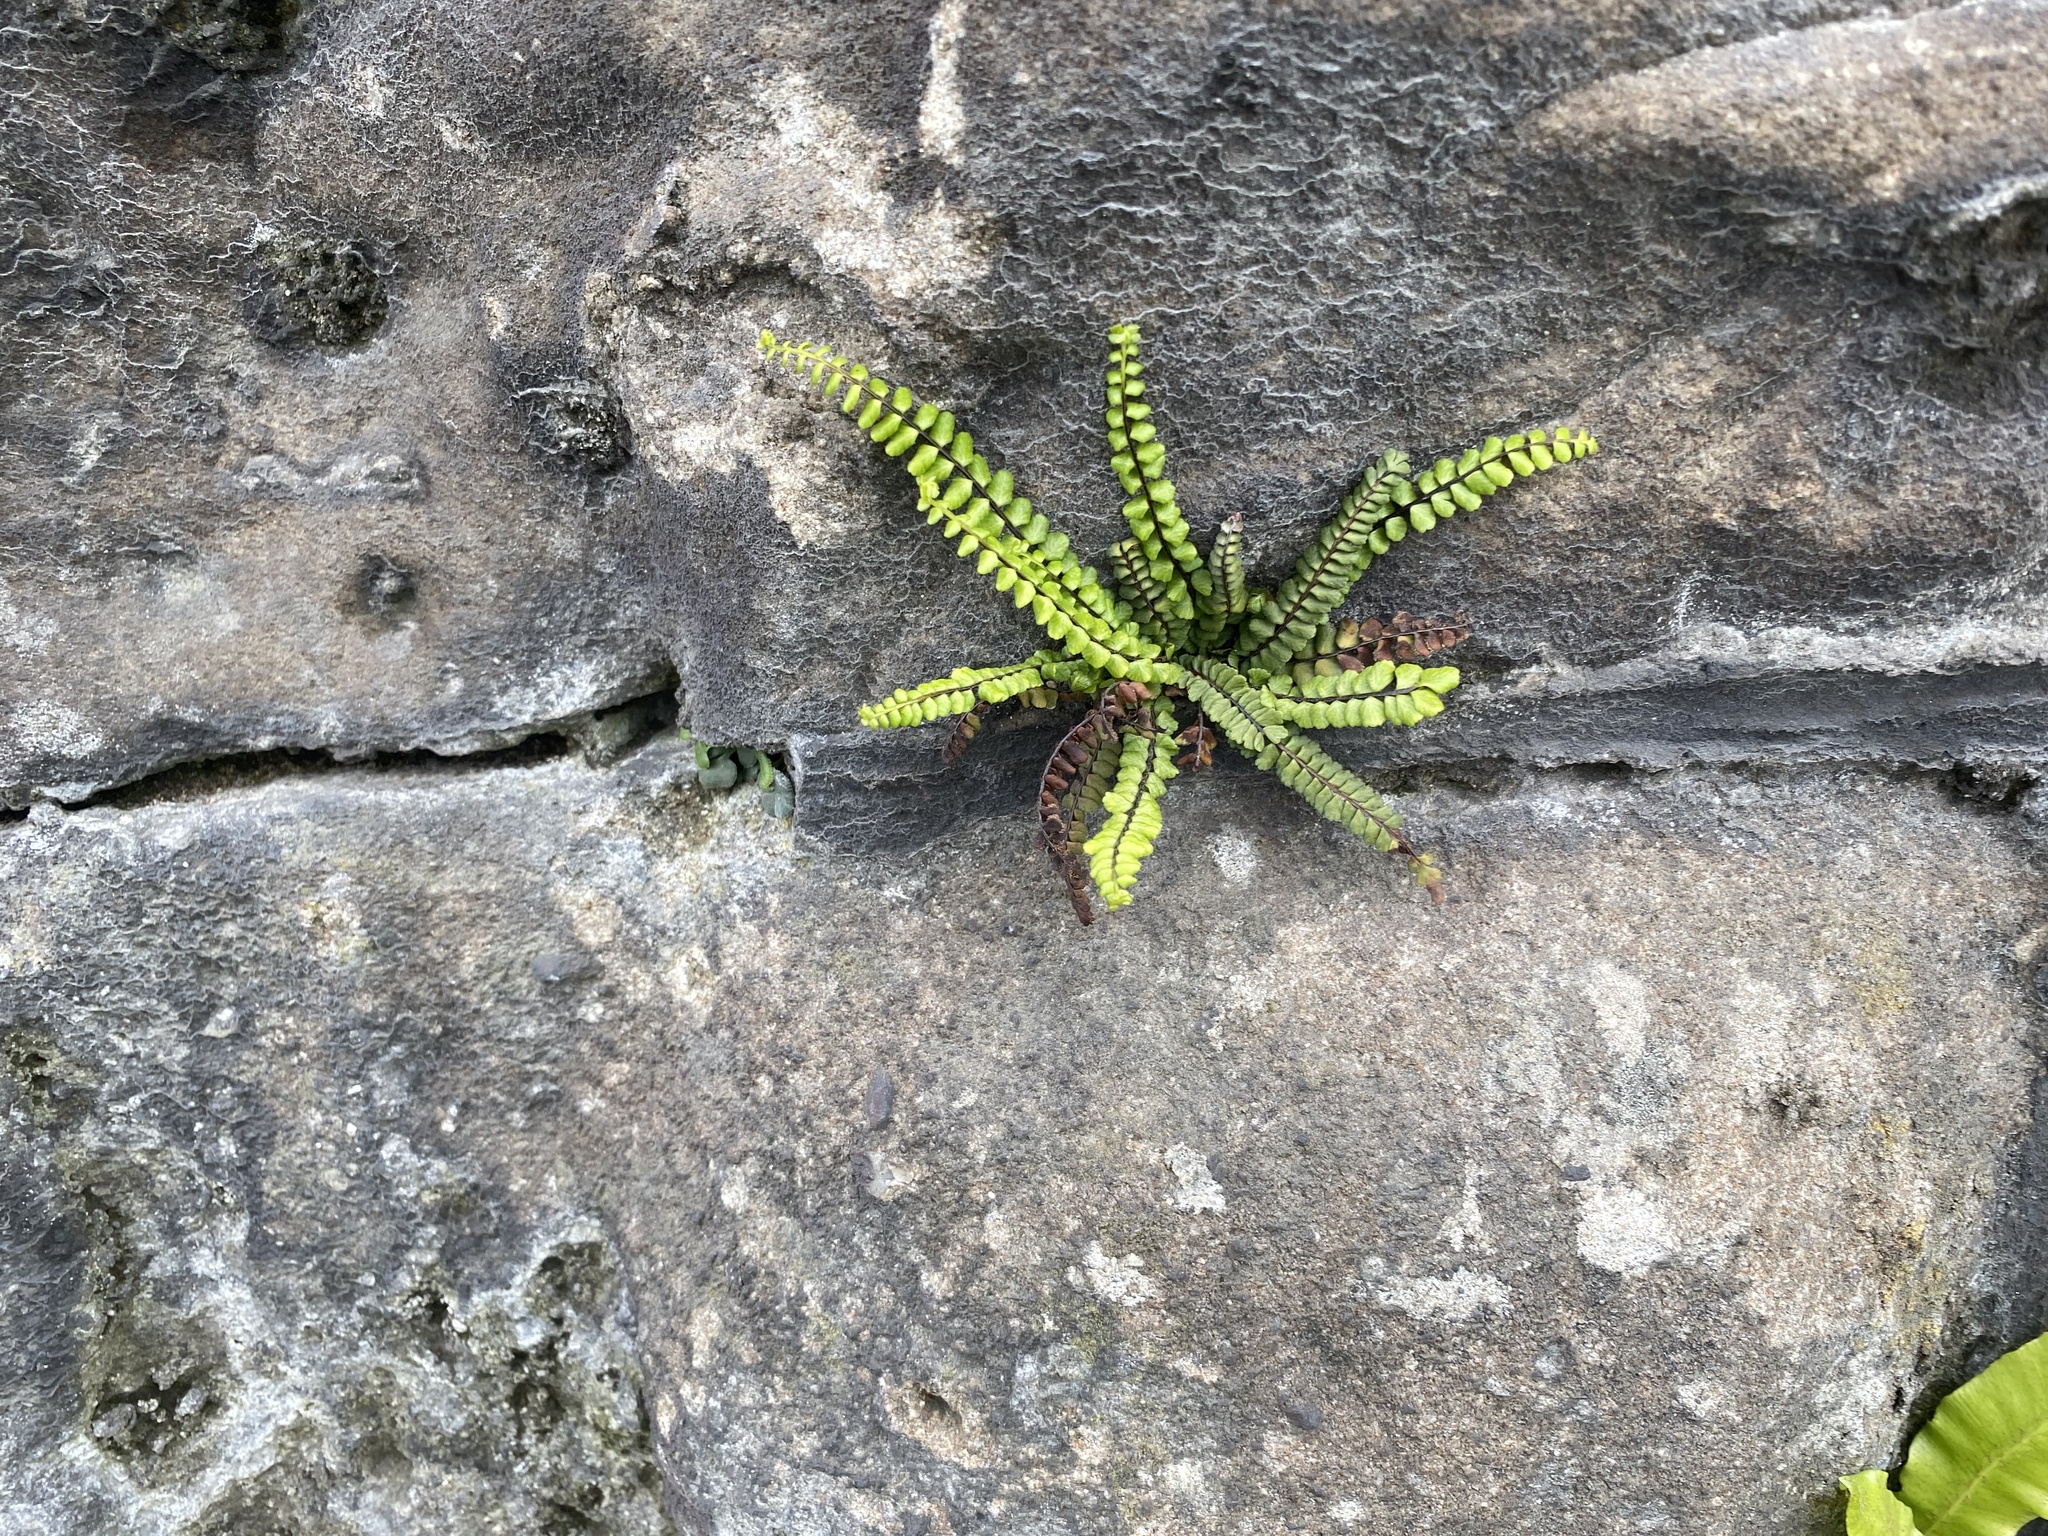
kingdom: Plantae
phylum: Tracheophyta
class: Polypodiopsida
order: Polypodiales
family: Aspleniaceae
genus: Asplenium
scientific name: Asplenium trichomanes
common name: Maidenhair spleenwort
